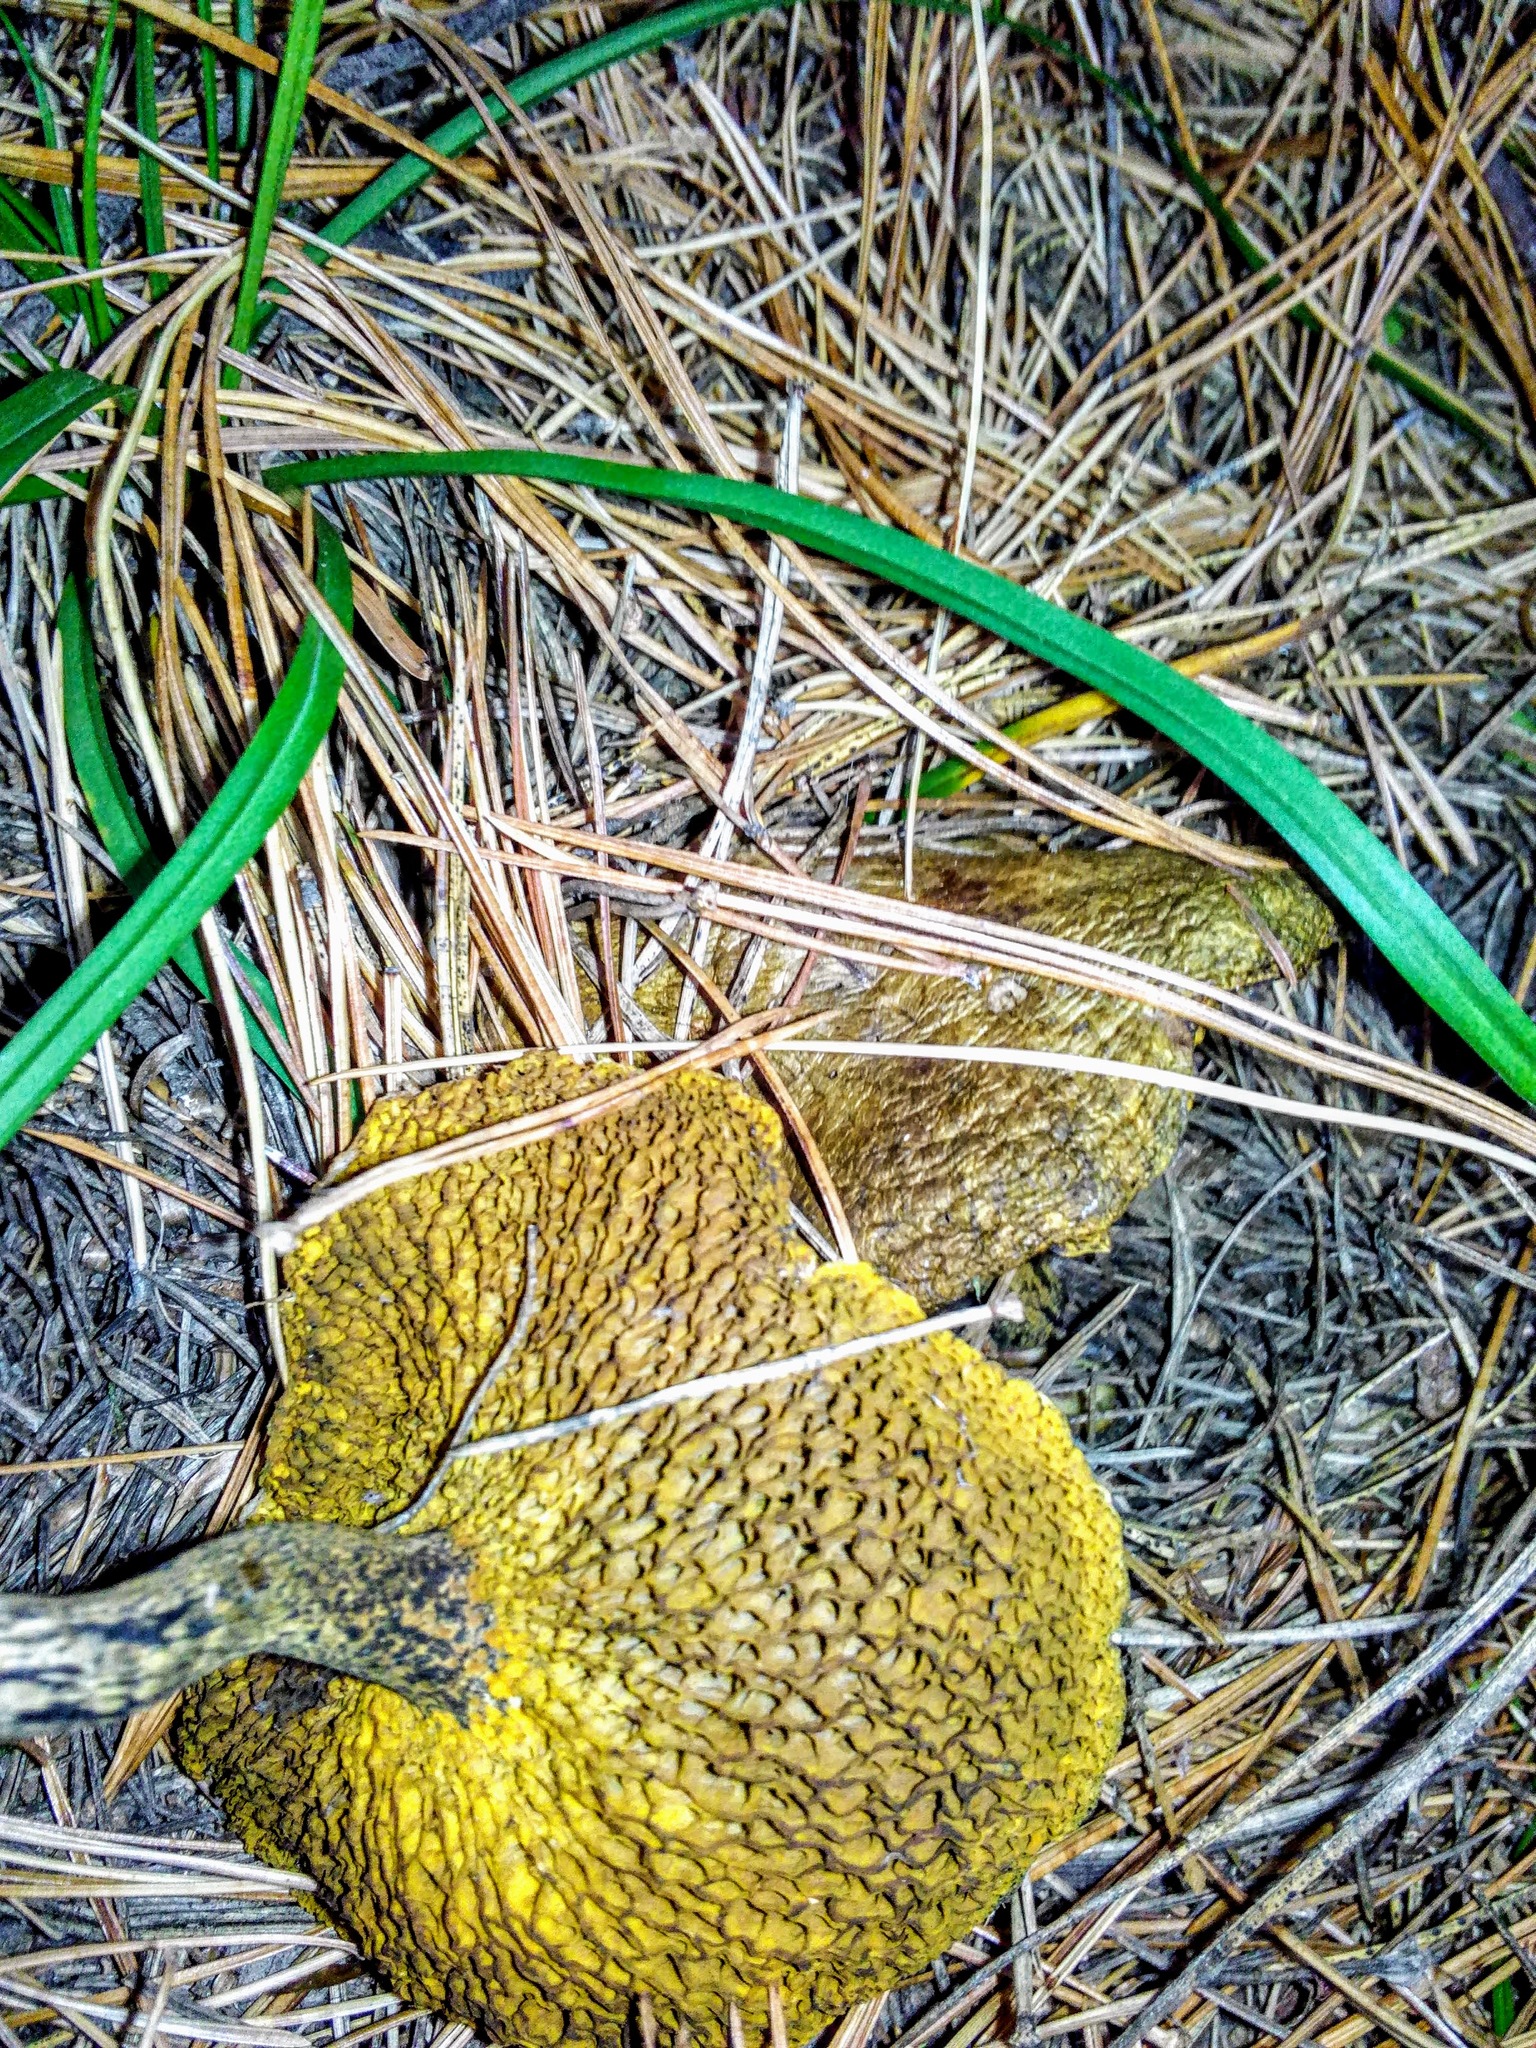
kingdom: Fungi
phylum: Basidiomycota
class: Agaricomycetes
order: Boletales
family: Suillaceae
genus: Suillus
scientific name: Suillus americanus
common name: Chicken fat mushroom
